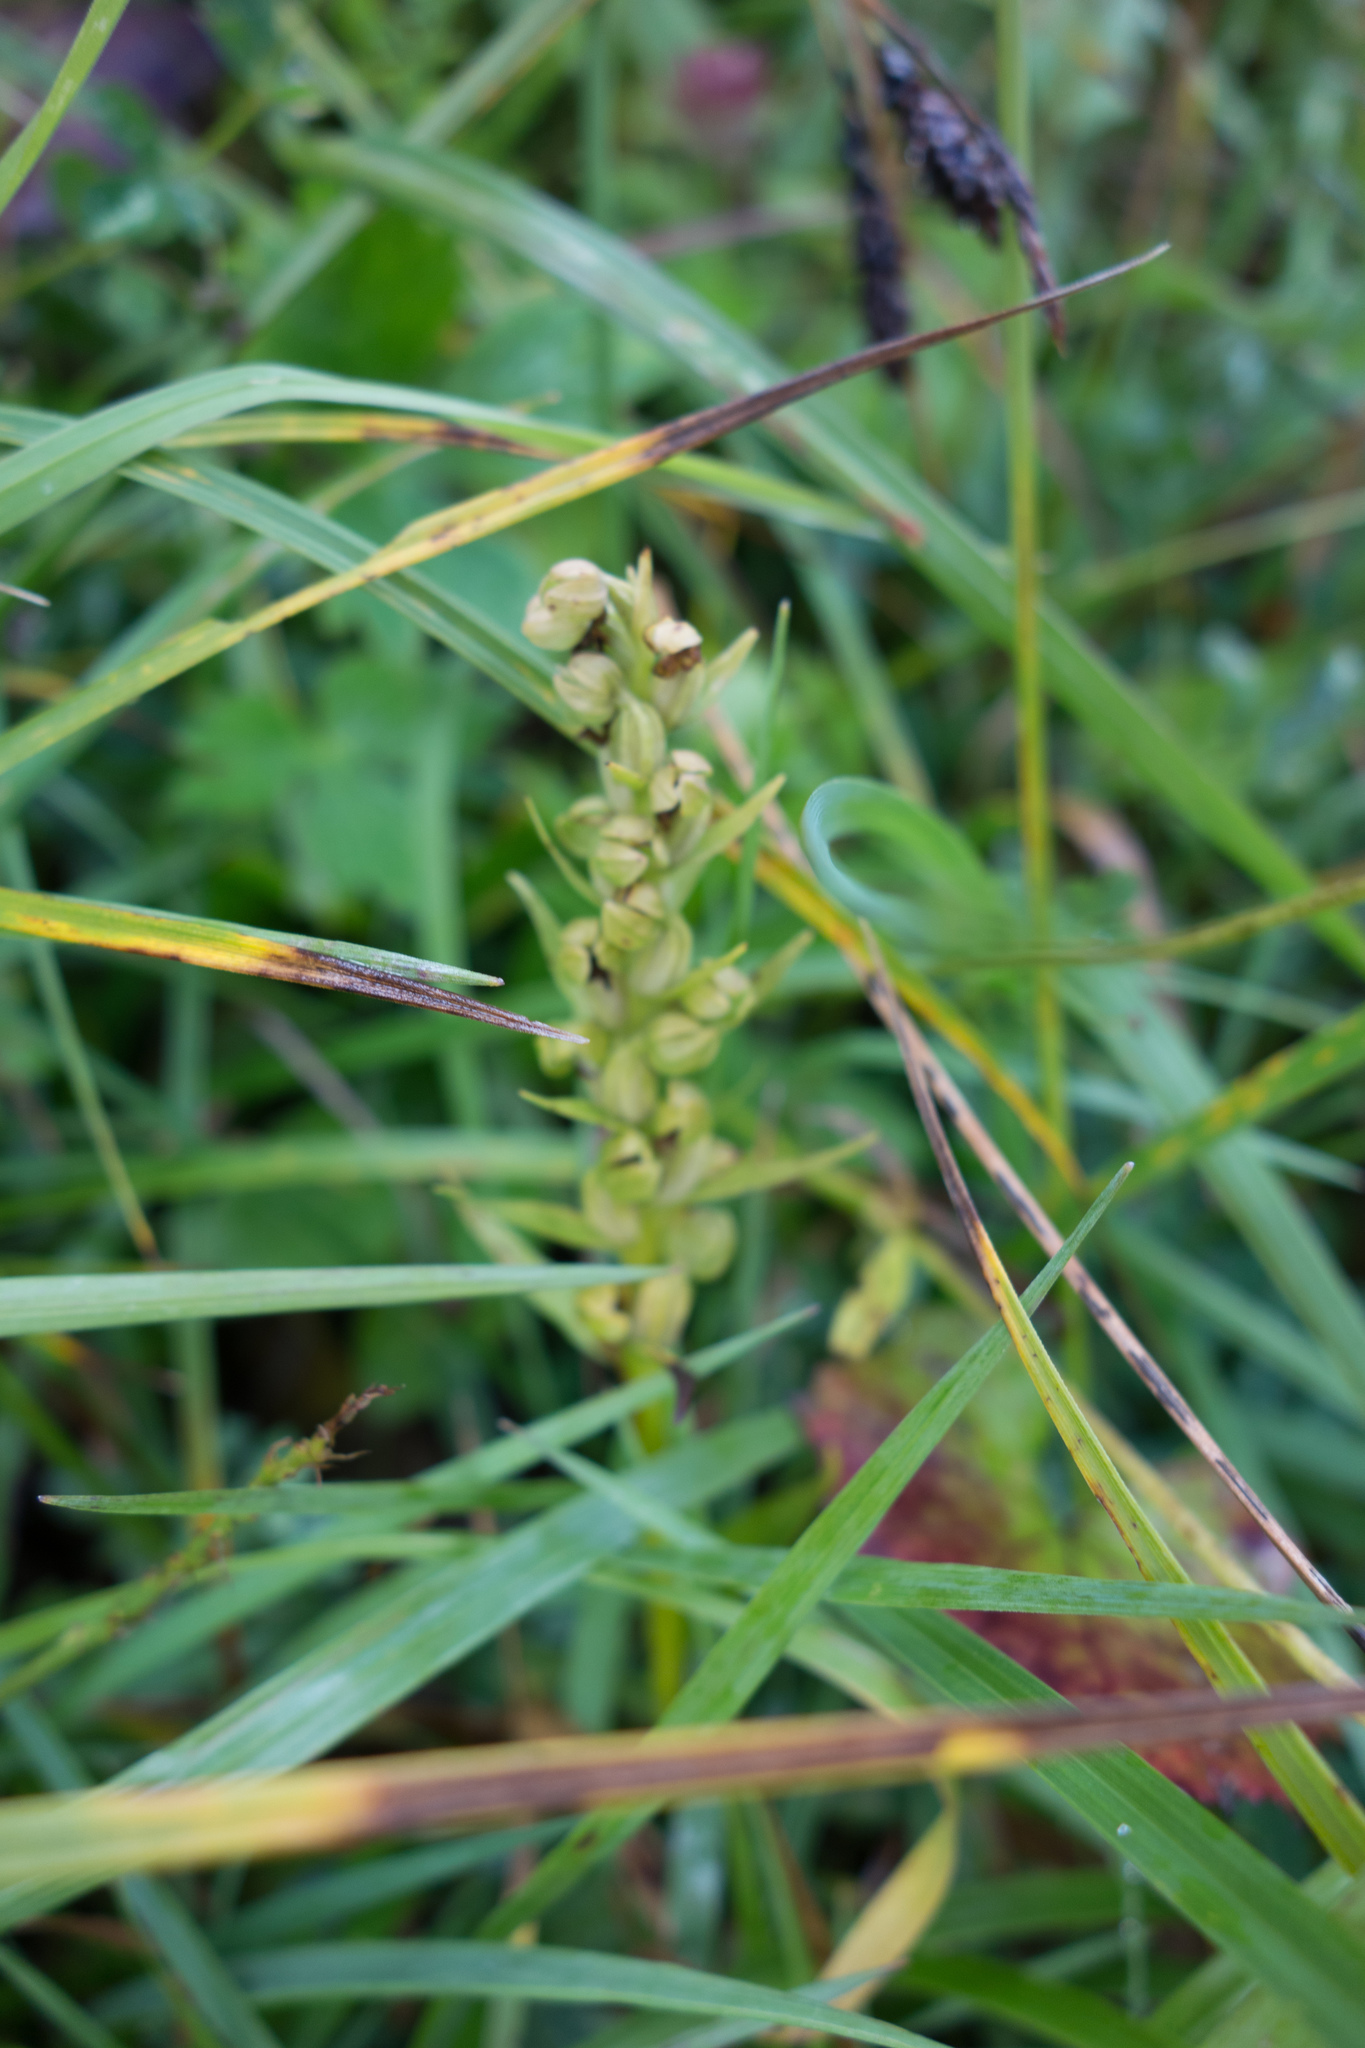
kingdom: Plantae
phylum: Tracheophyta
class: Liliopsida
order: Asparagales
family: Orchidaceae
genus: Dactylorhiza
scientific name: Dactylorhiza viridis
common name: Longbract frog orchid
